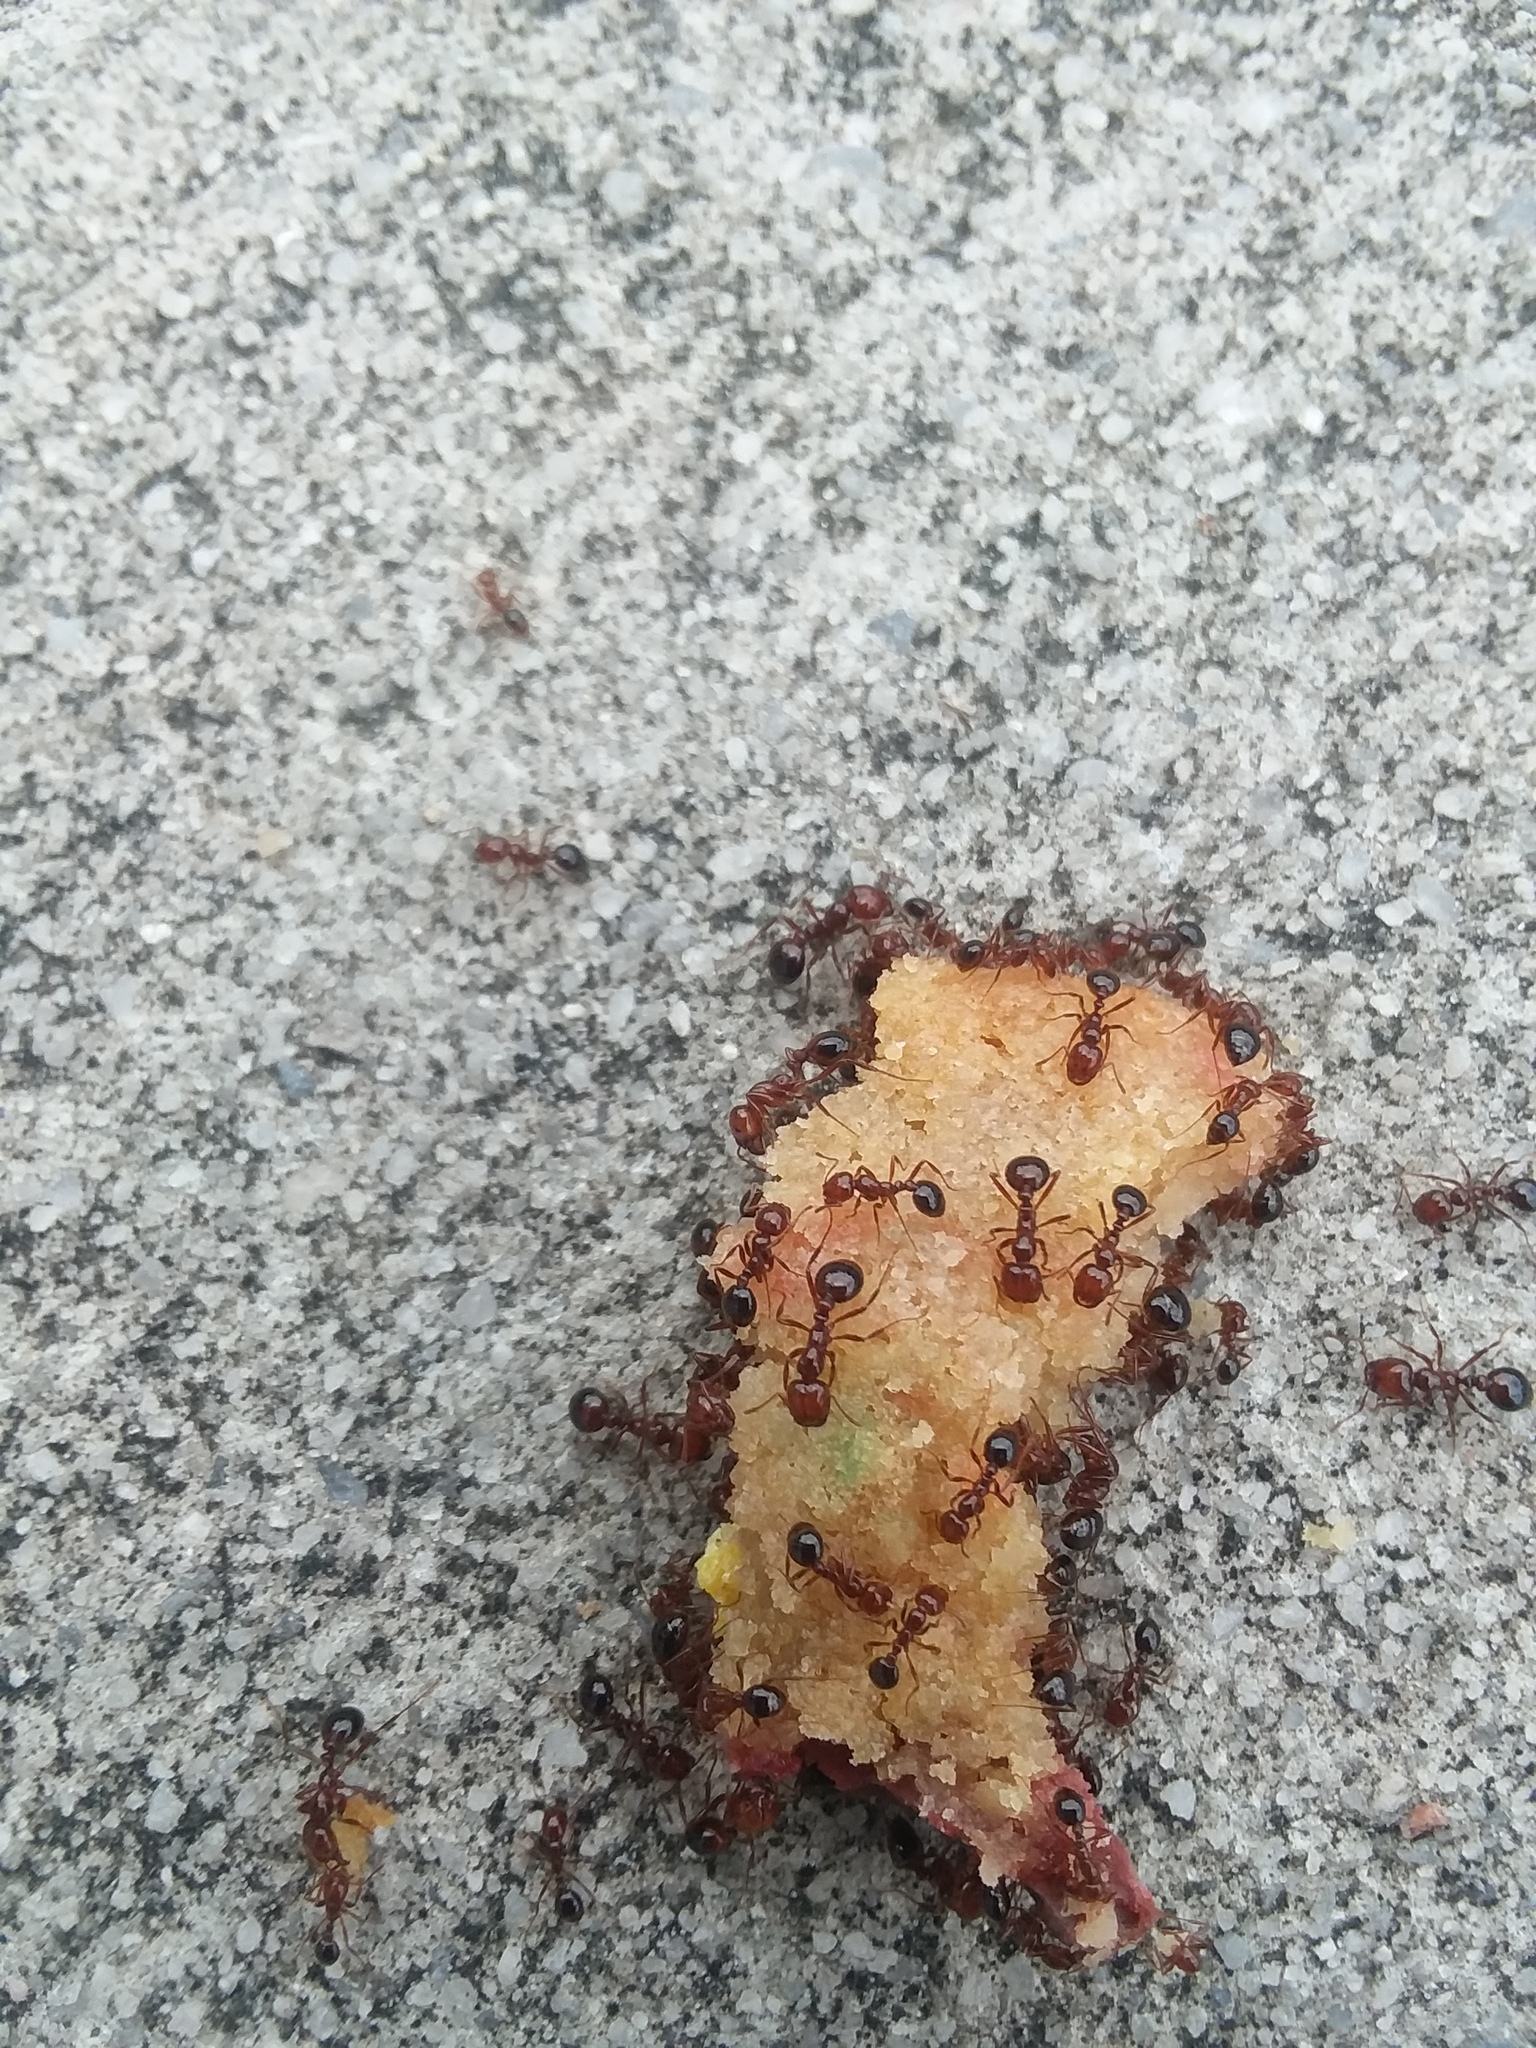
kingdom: Animalia
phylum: Arthropoda
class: Insecta
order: Hymenoptera
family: Formicidae
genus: Solenopsis
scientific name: Solenopsis invicta
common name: Red imported fire ant
